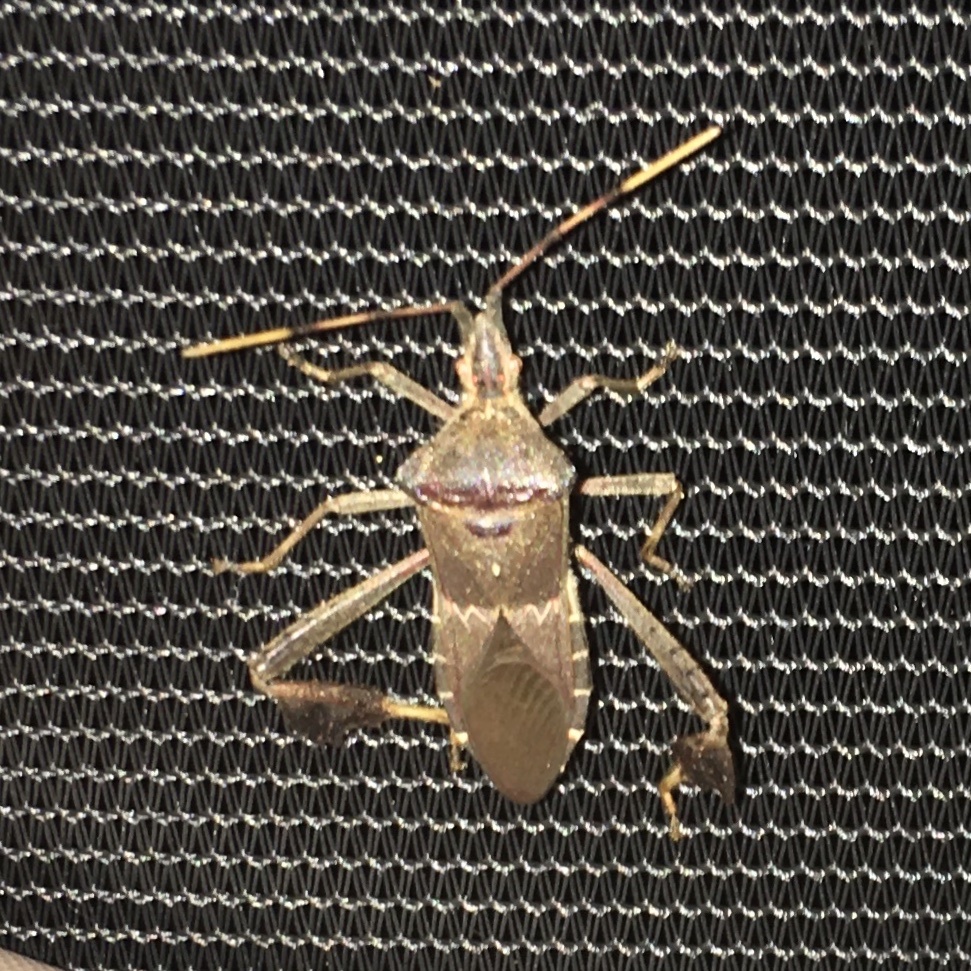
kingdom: Animalia
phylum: Arthropoda
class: Insecta
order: Hemiptera
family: Coreidae
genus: Leptoglossus
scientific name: Leptoglossus zonatus
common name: Large-legged bug
